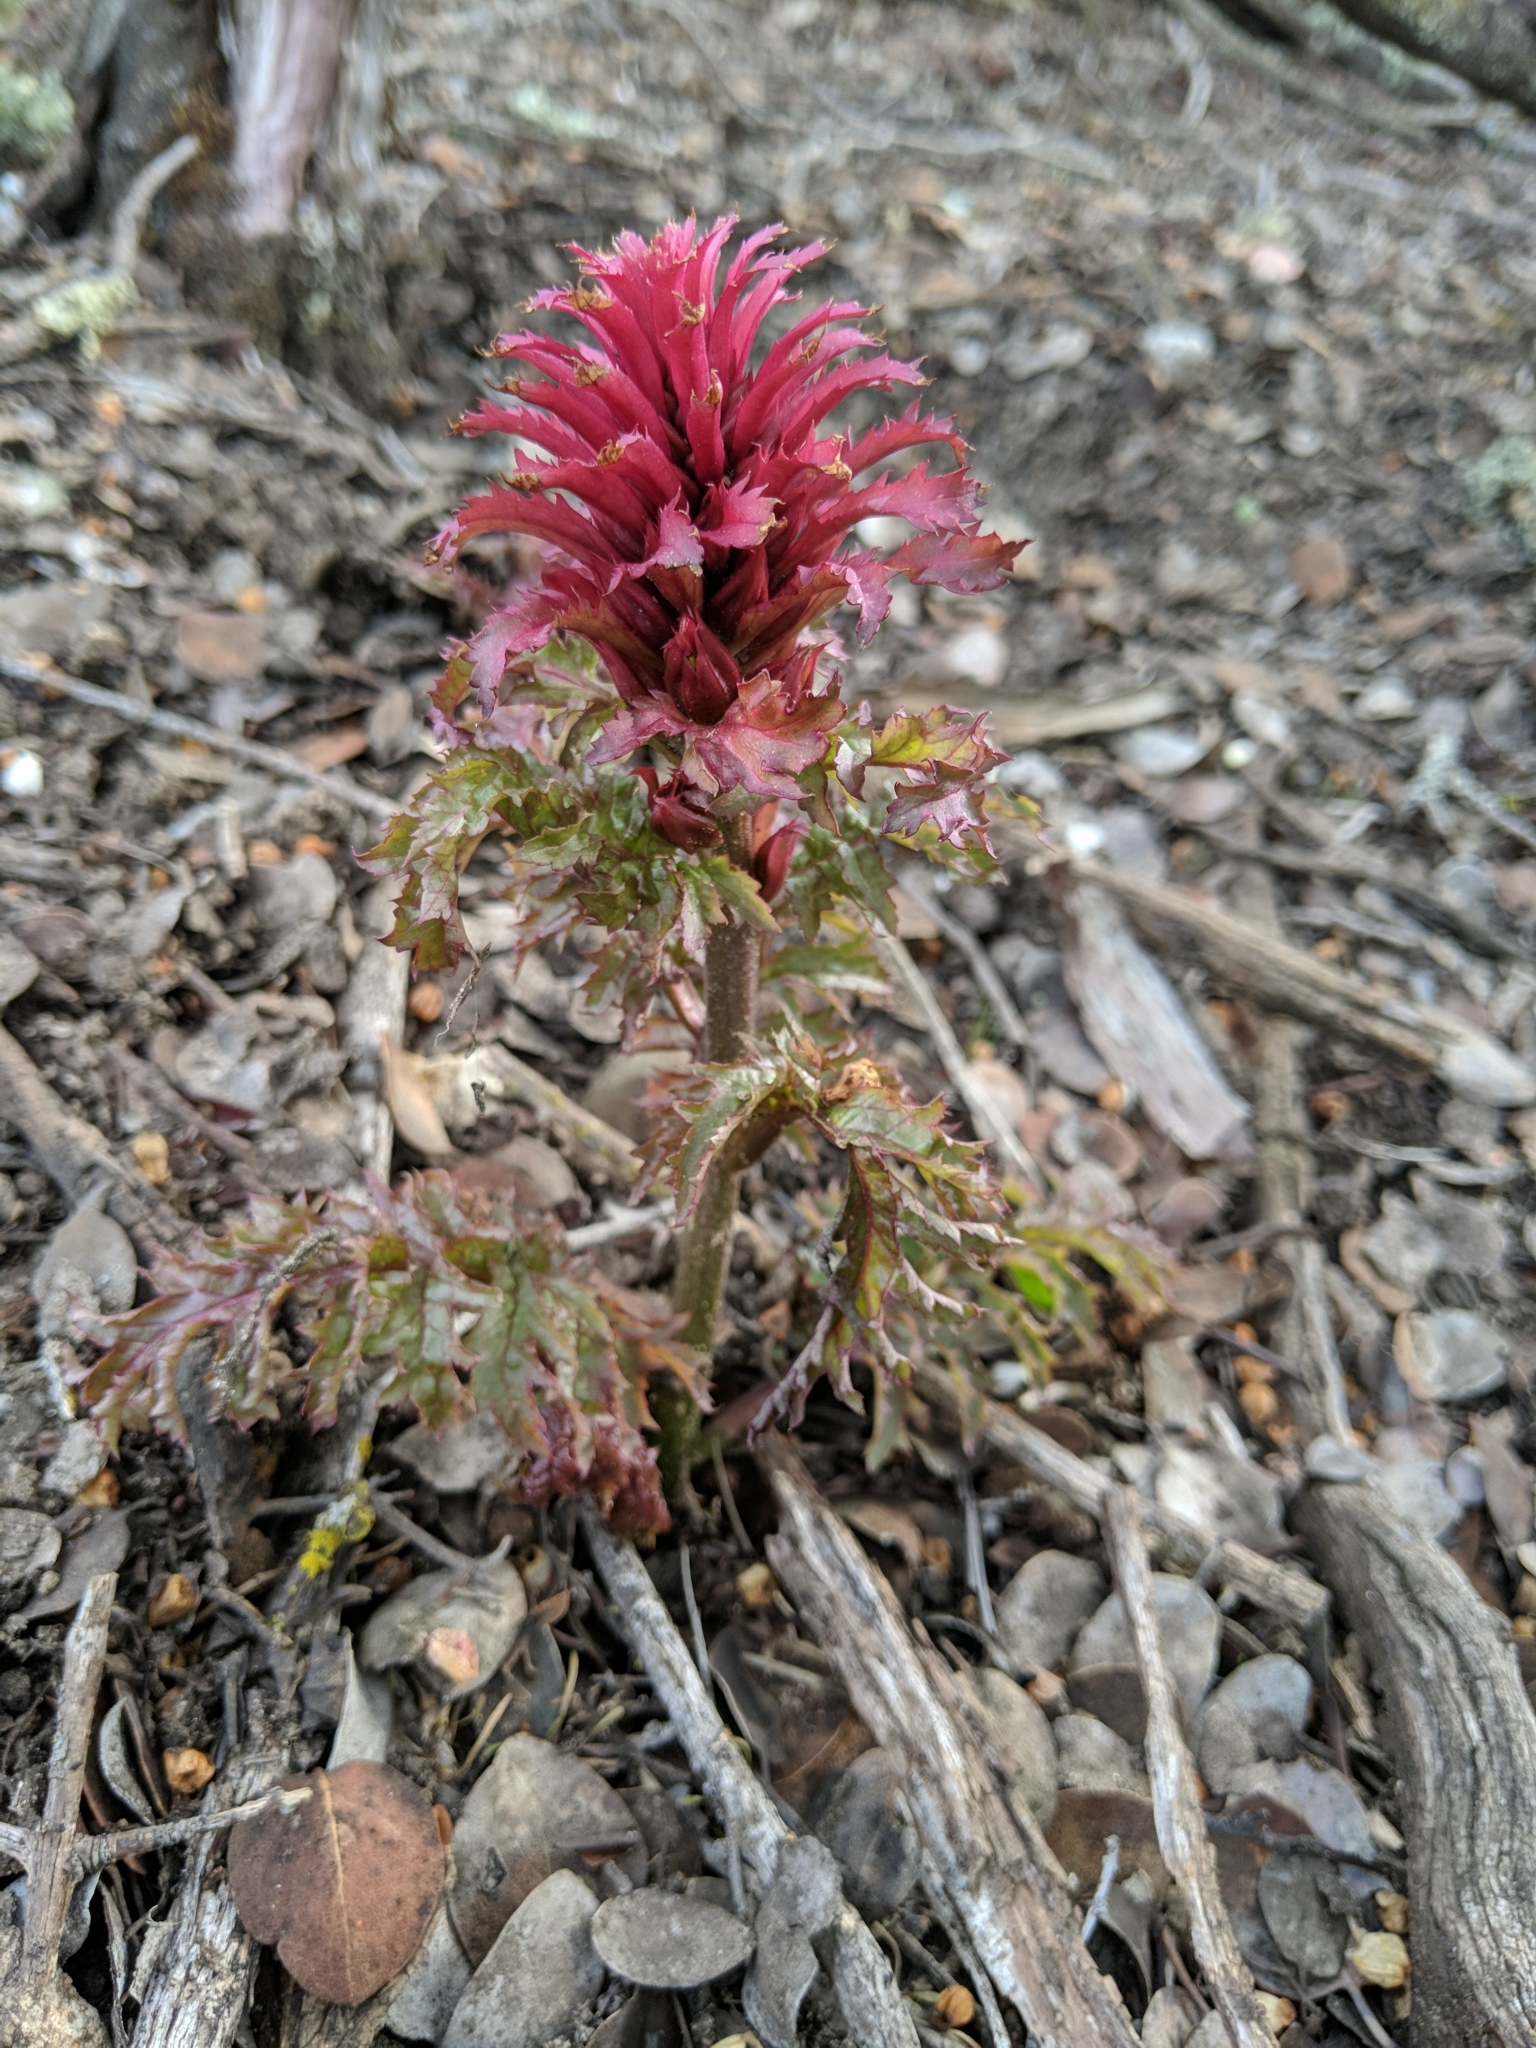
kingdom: Plantae
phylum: Tracheophyta
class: Magnoliopsida
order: Lamiales
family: Orobanchaceae
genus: Pedicularis
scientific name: Pedicularis densiflora
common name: Indian warrior
